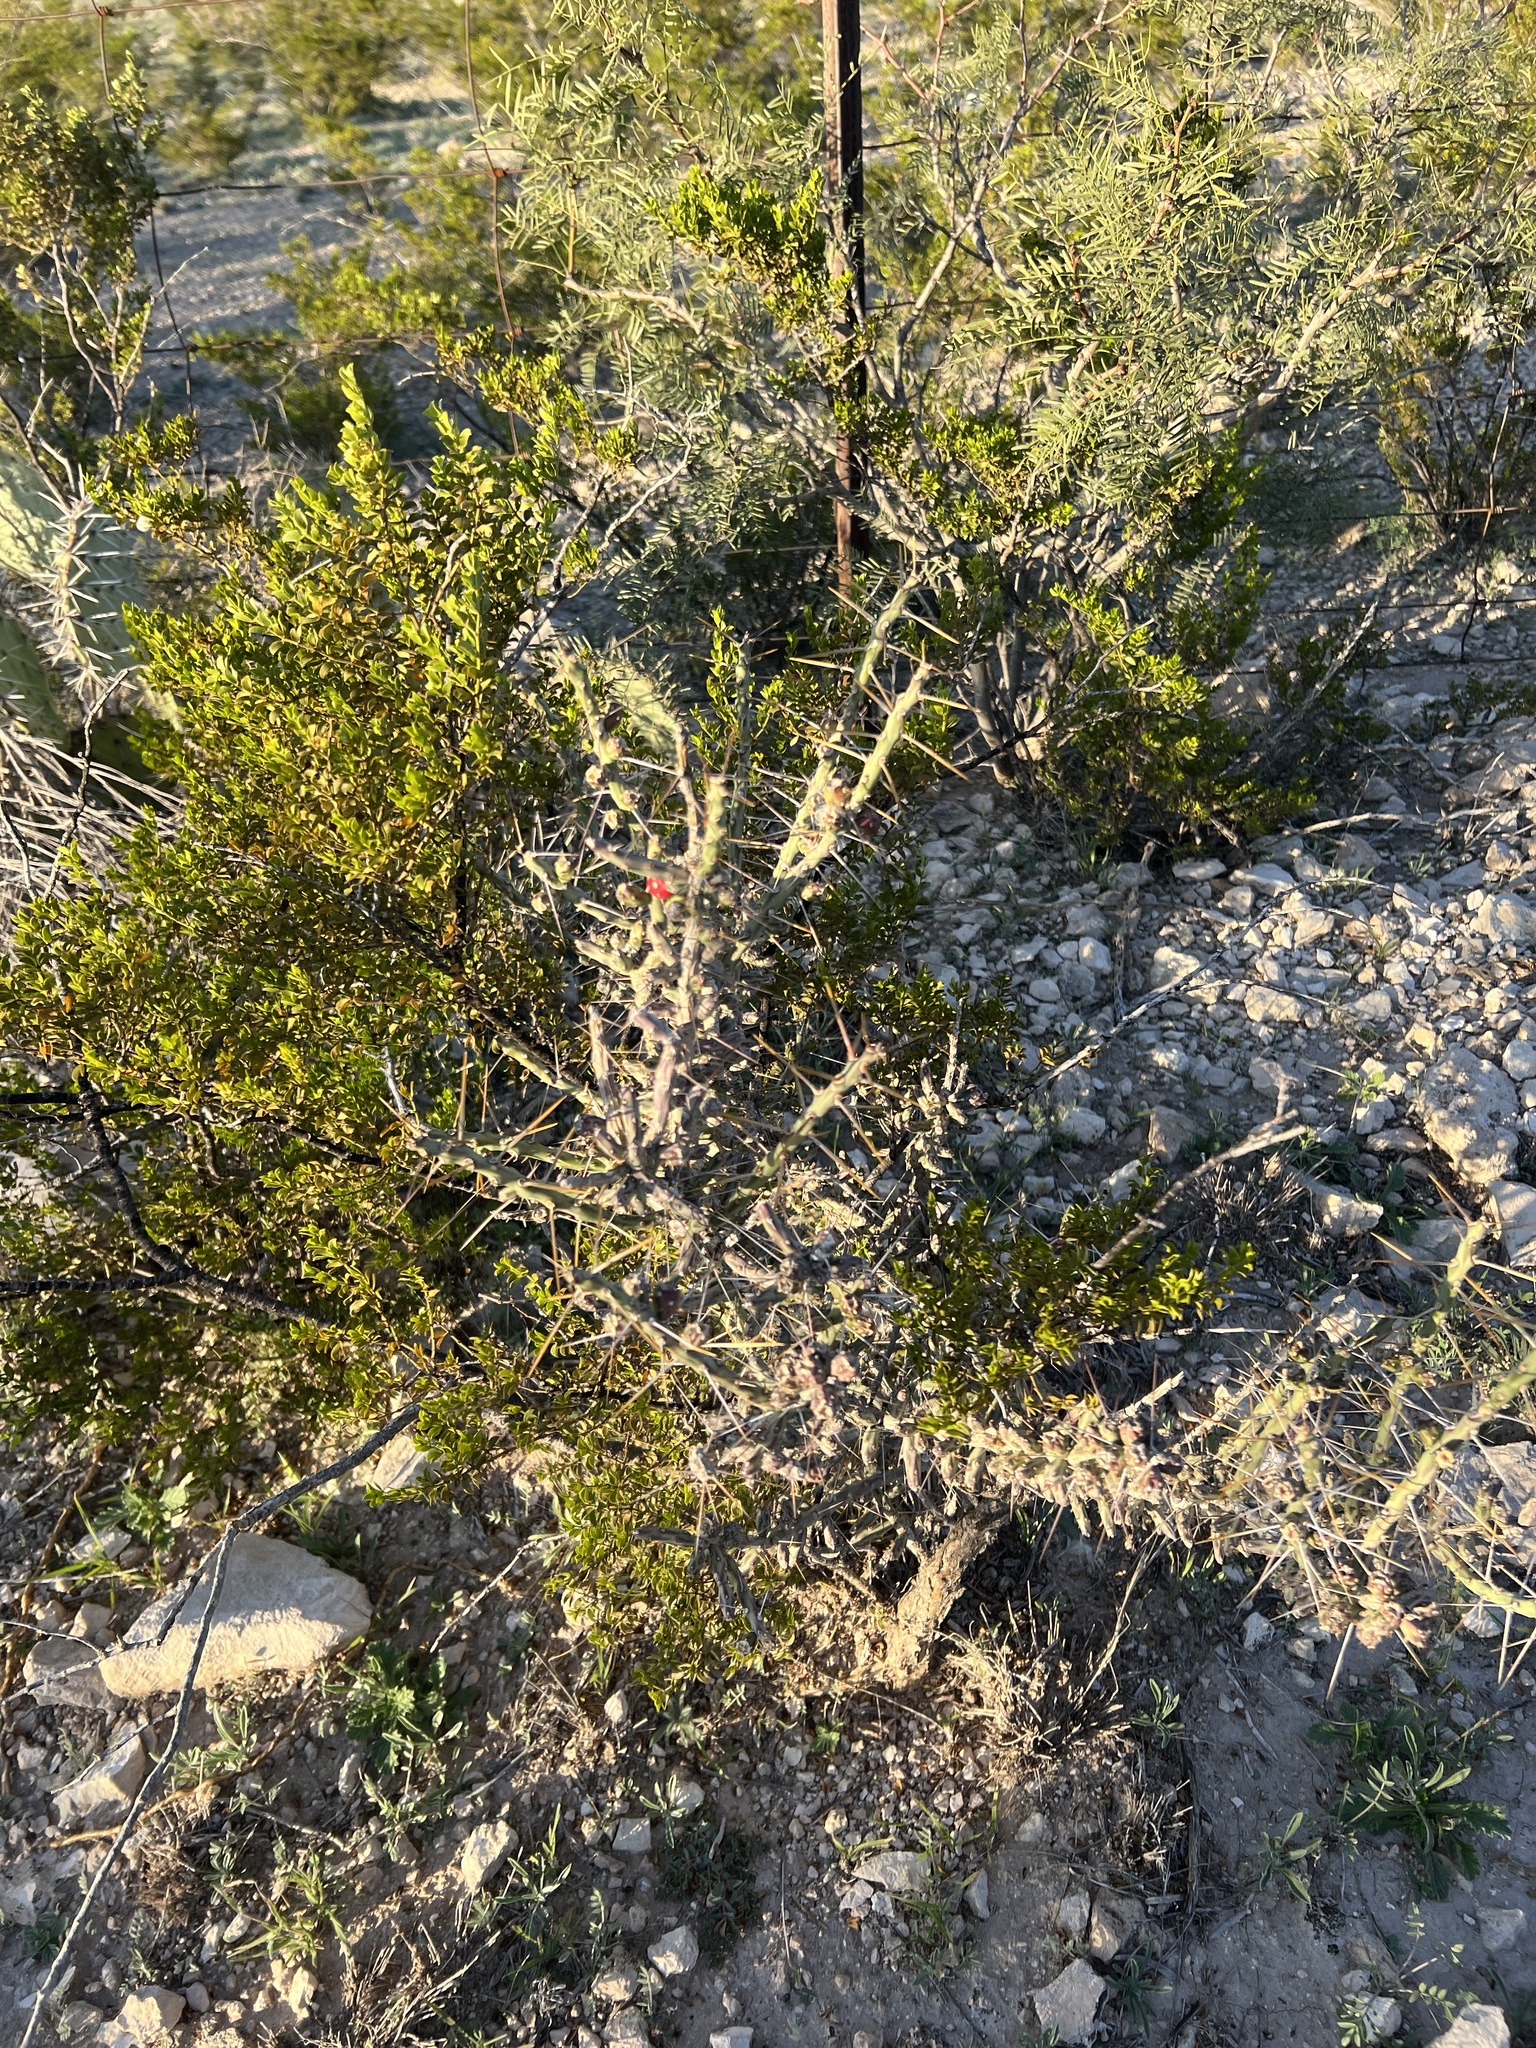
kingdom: Plantae
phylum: Tracheophyta
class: Magnoliopsida
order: Caryophyllales
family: Cactaceae
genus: Cylindropuntia
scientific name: Cylindropuntia leptocaulis
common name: Christmas cactus
